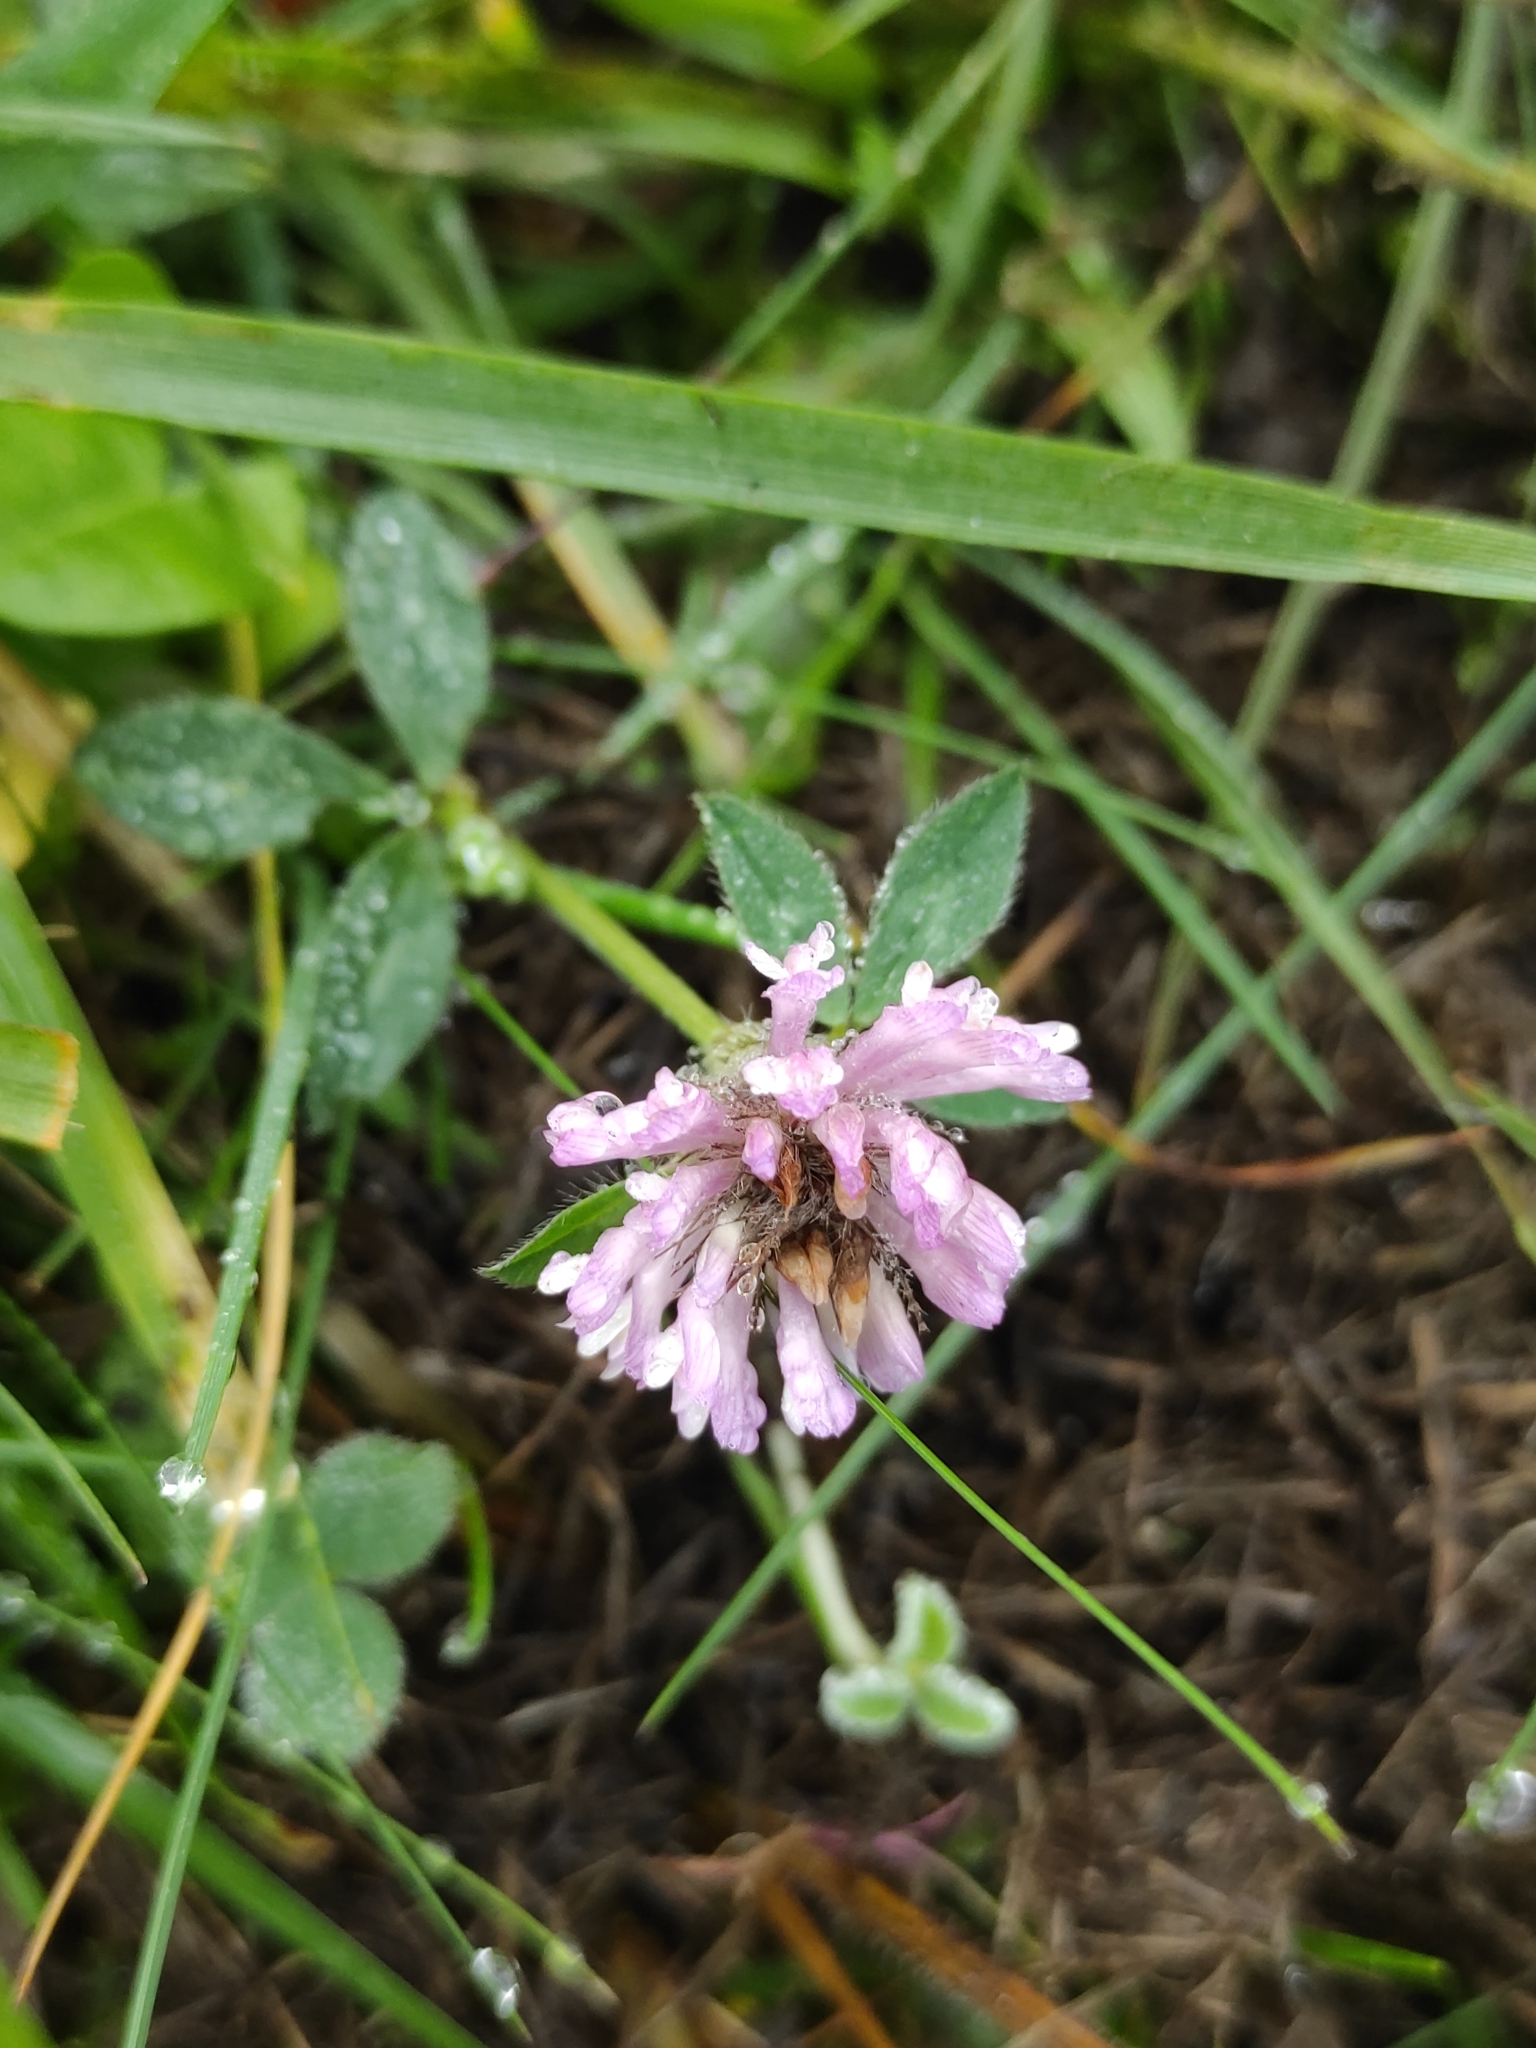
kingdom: Plantae
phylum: Tracheophyta
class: Magnoliopsida
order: Fabales
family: Fabaceae
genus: Trifolium
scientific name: Trifolium pratense
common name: Red clover
